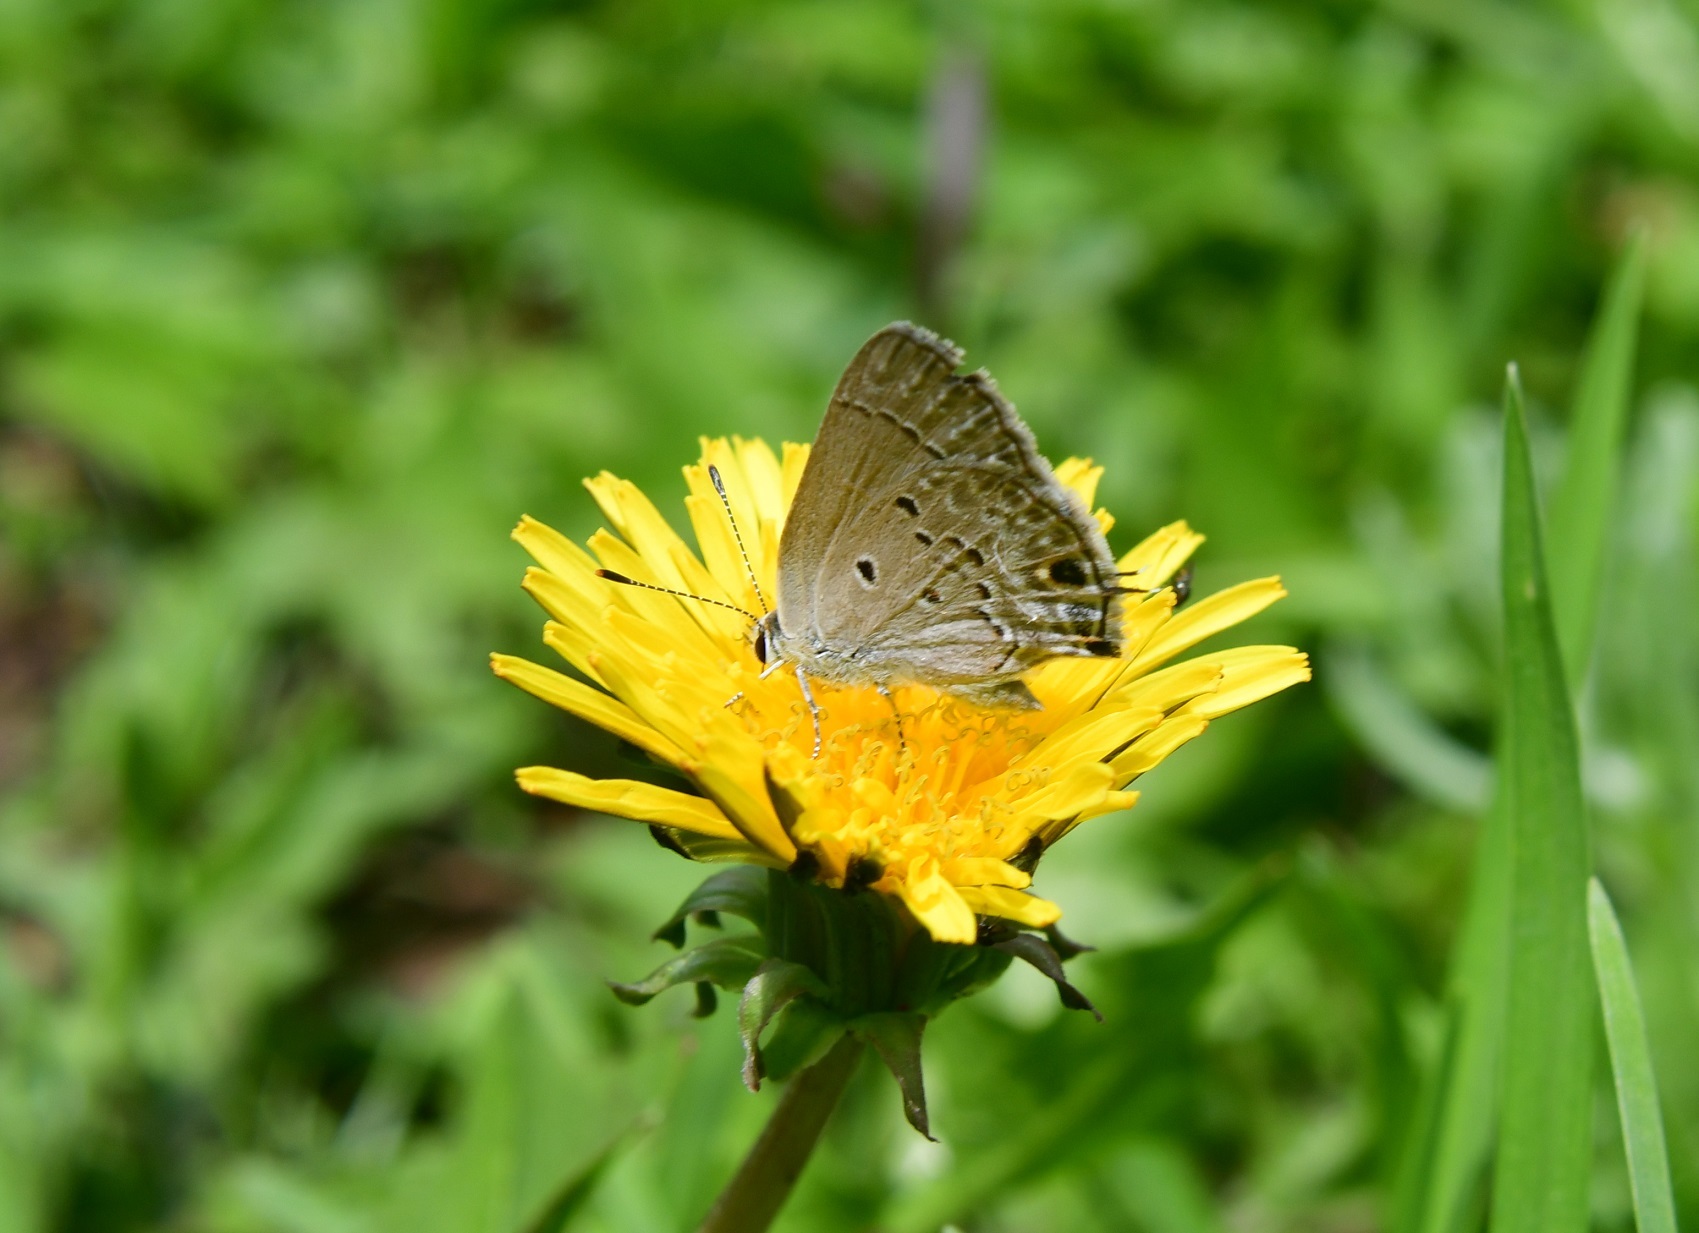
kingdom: Animalia
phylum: Arthropoda
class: Insecta
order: Lepidoptera
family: Lycaenidae
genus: Callicista
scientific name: Callicista columella
